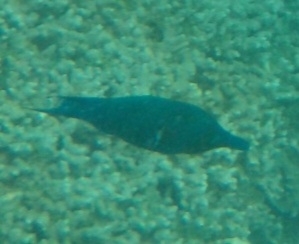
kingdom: Animalia
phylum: Chordata
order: Perciformes
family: Labridae
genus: Gomphosus
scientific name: Gomphosus caeruleus
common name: Bird wrasse
